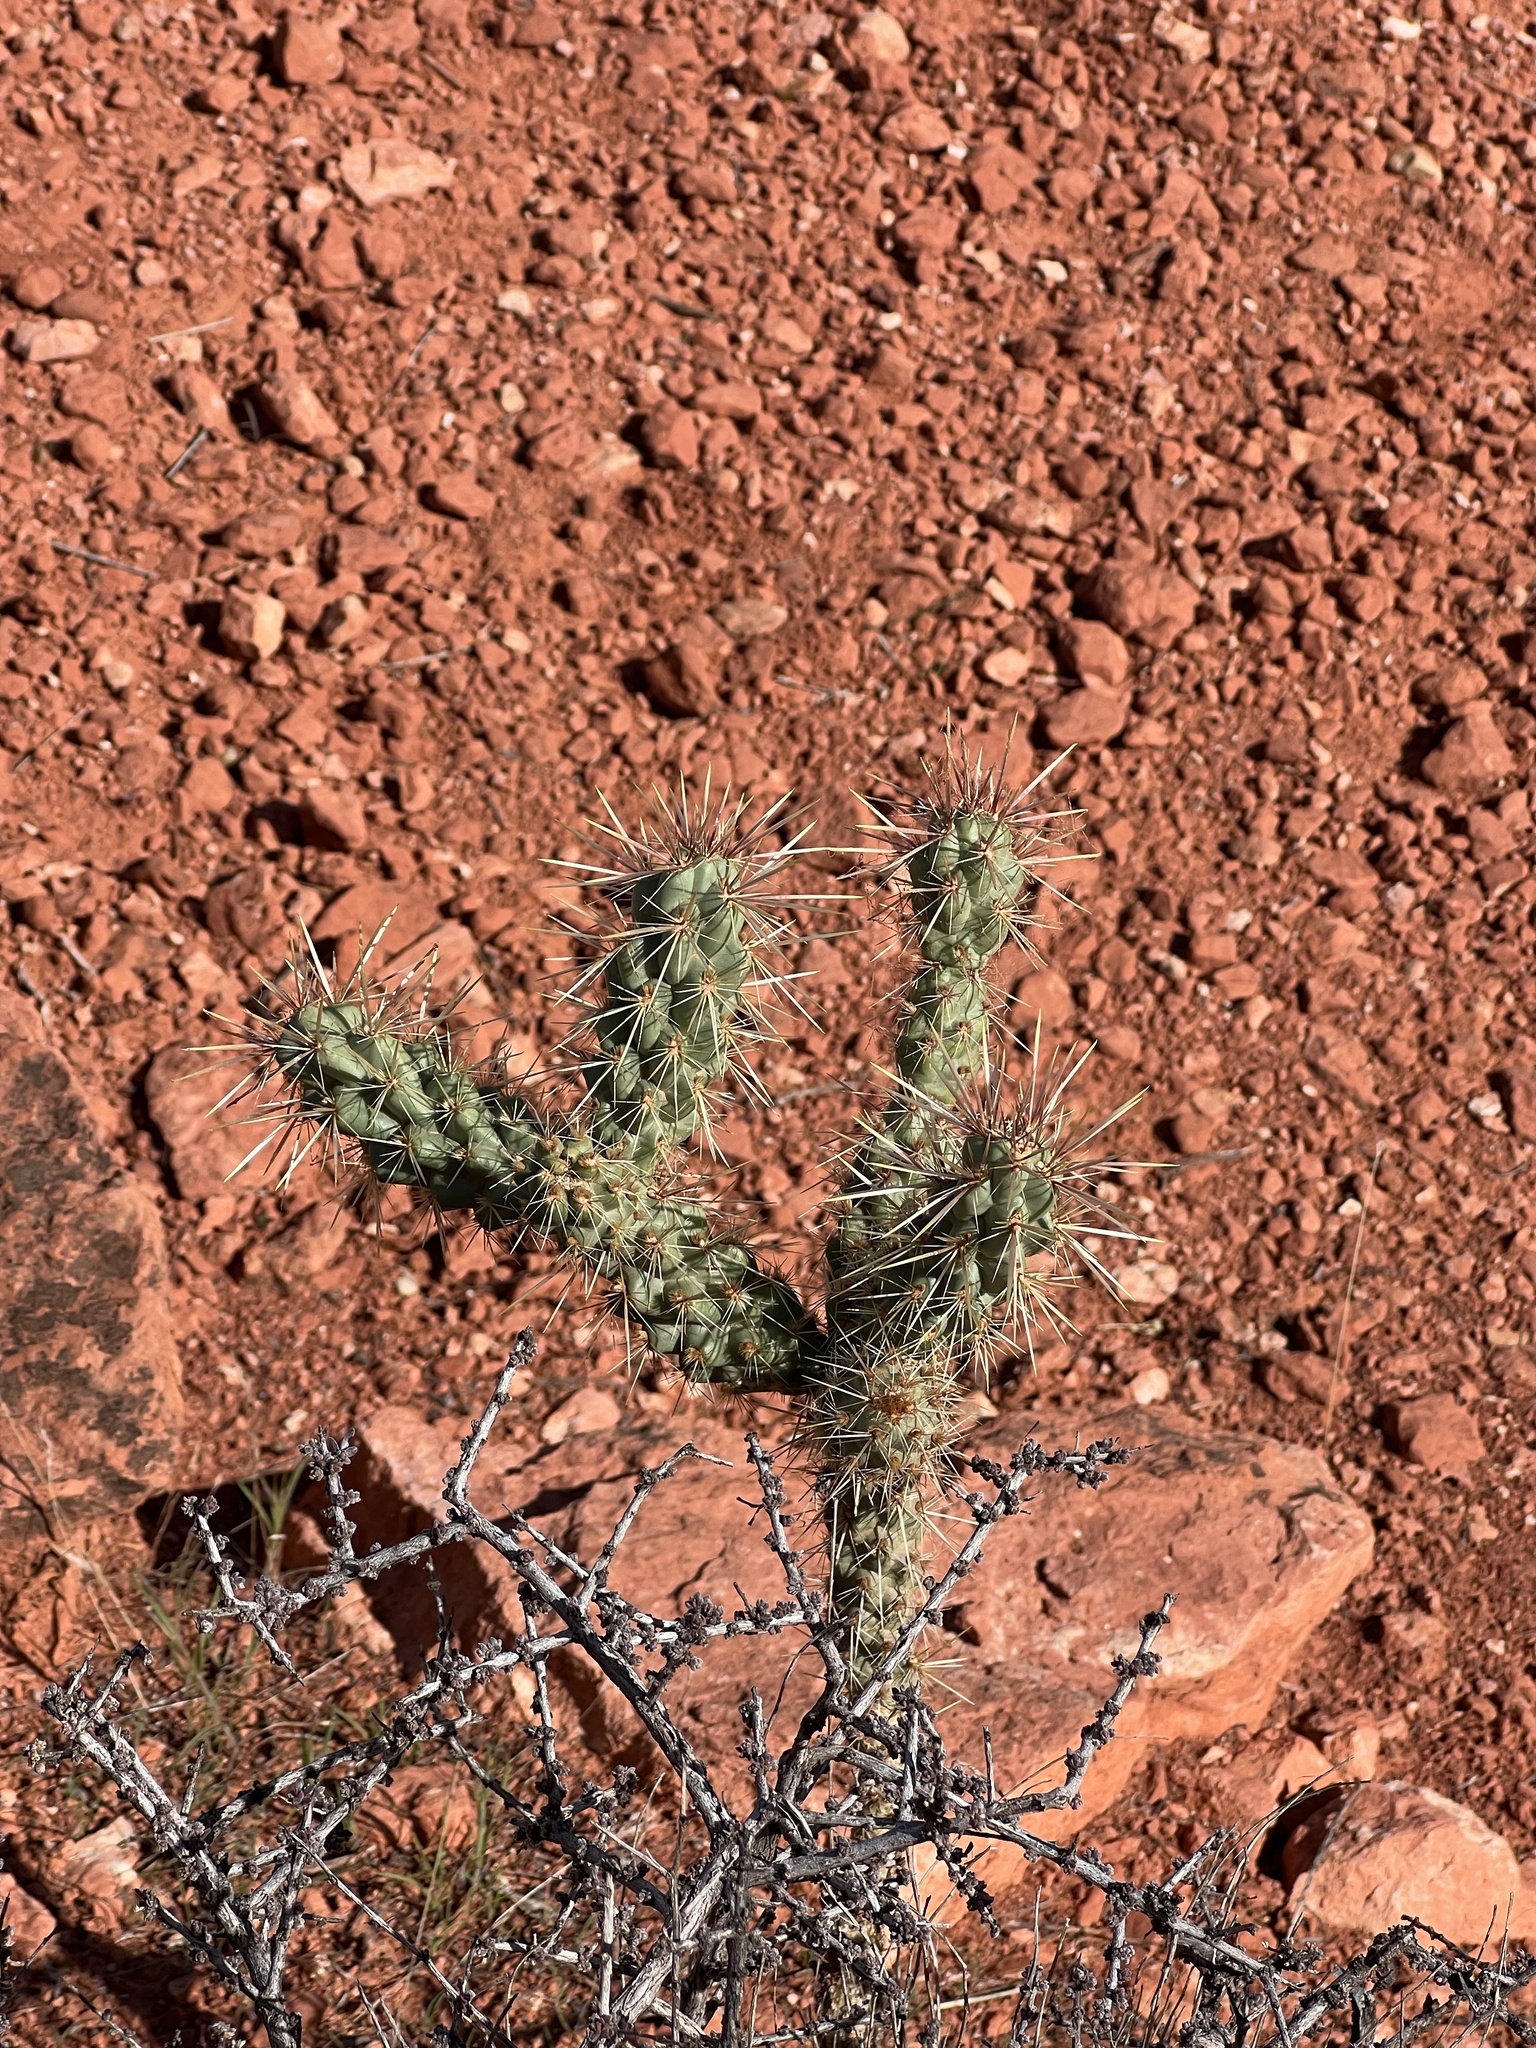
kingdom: Plantae
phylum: Tracheophyta
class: Magnoliopsida
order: Caryophyllales
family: Cactaceae
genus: Cylindropuntia
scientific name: Cylindropuntia echinocarpa
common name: Ground cholla
